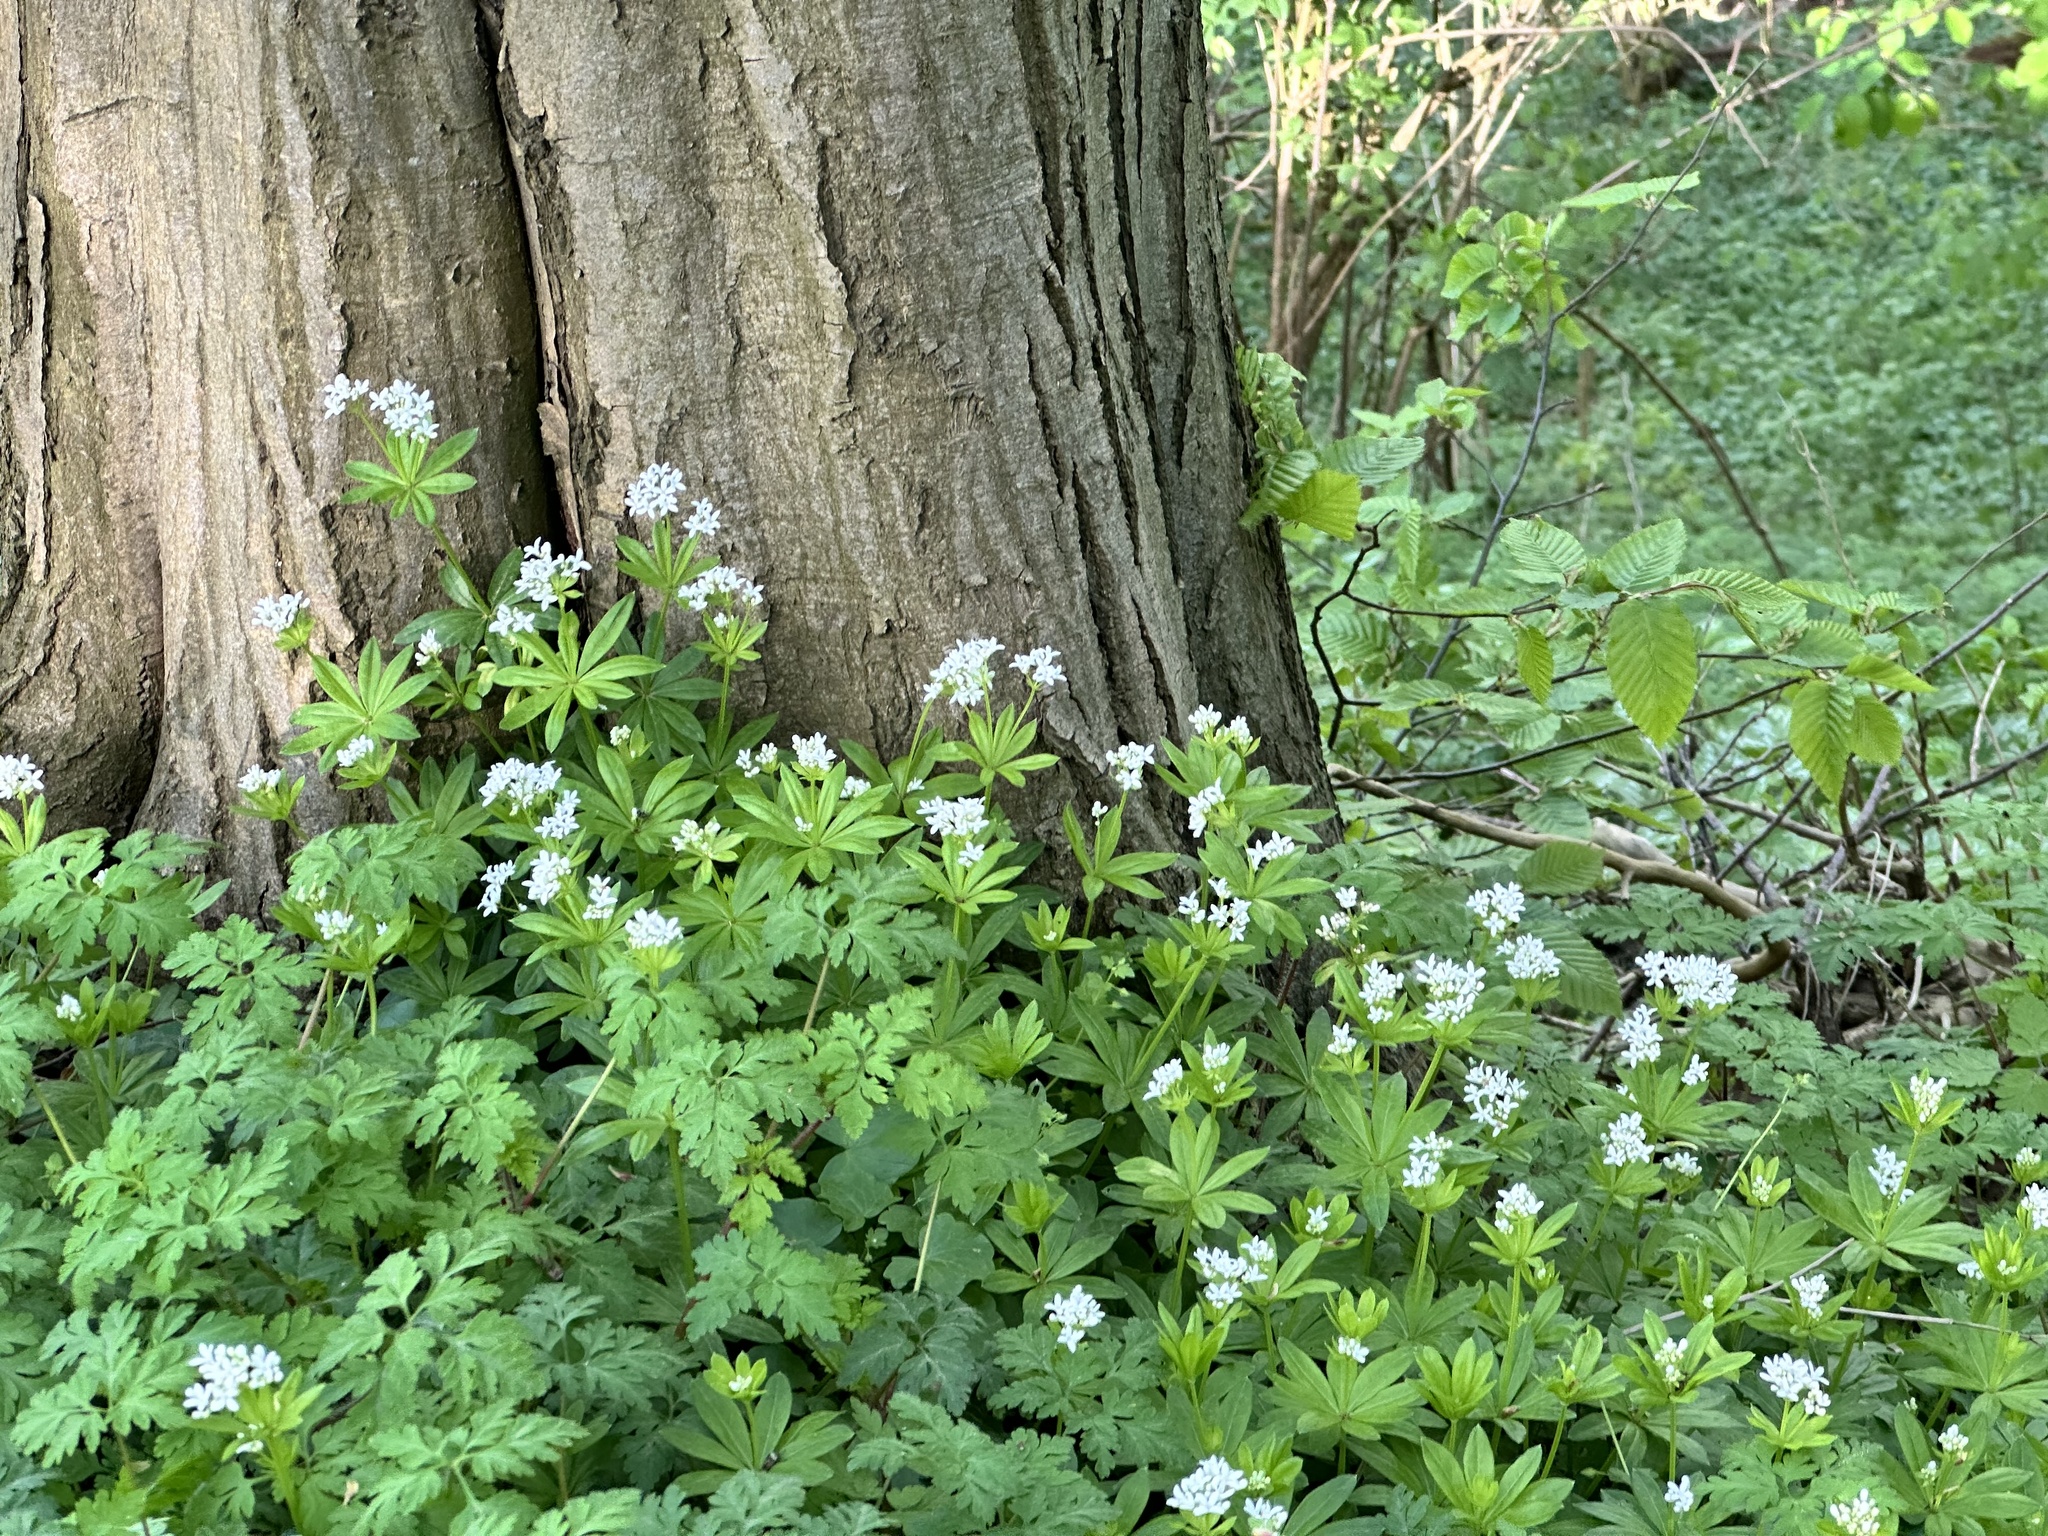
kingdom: Plantae
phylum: Tracheophyta
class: Magnoliopsida
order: Gentianales
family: Rubiaceae
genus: Galium
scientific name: Galium odoratum
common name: Sweet woodruff
